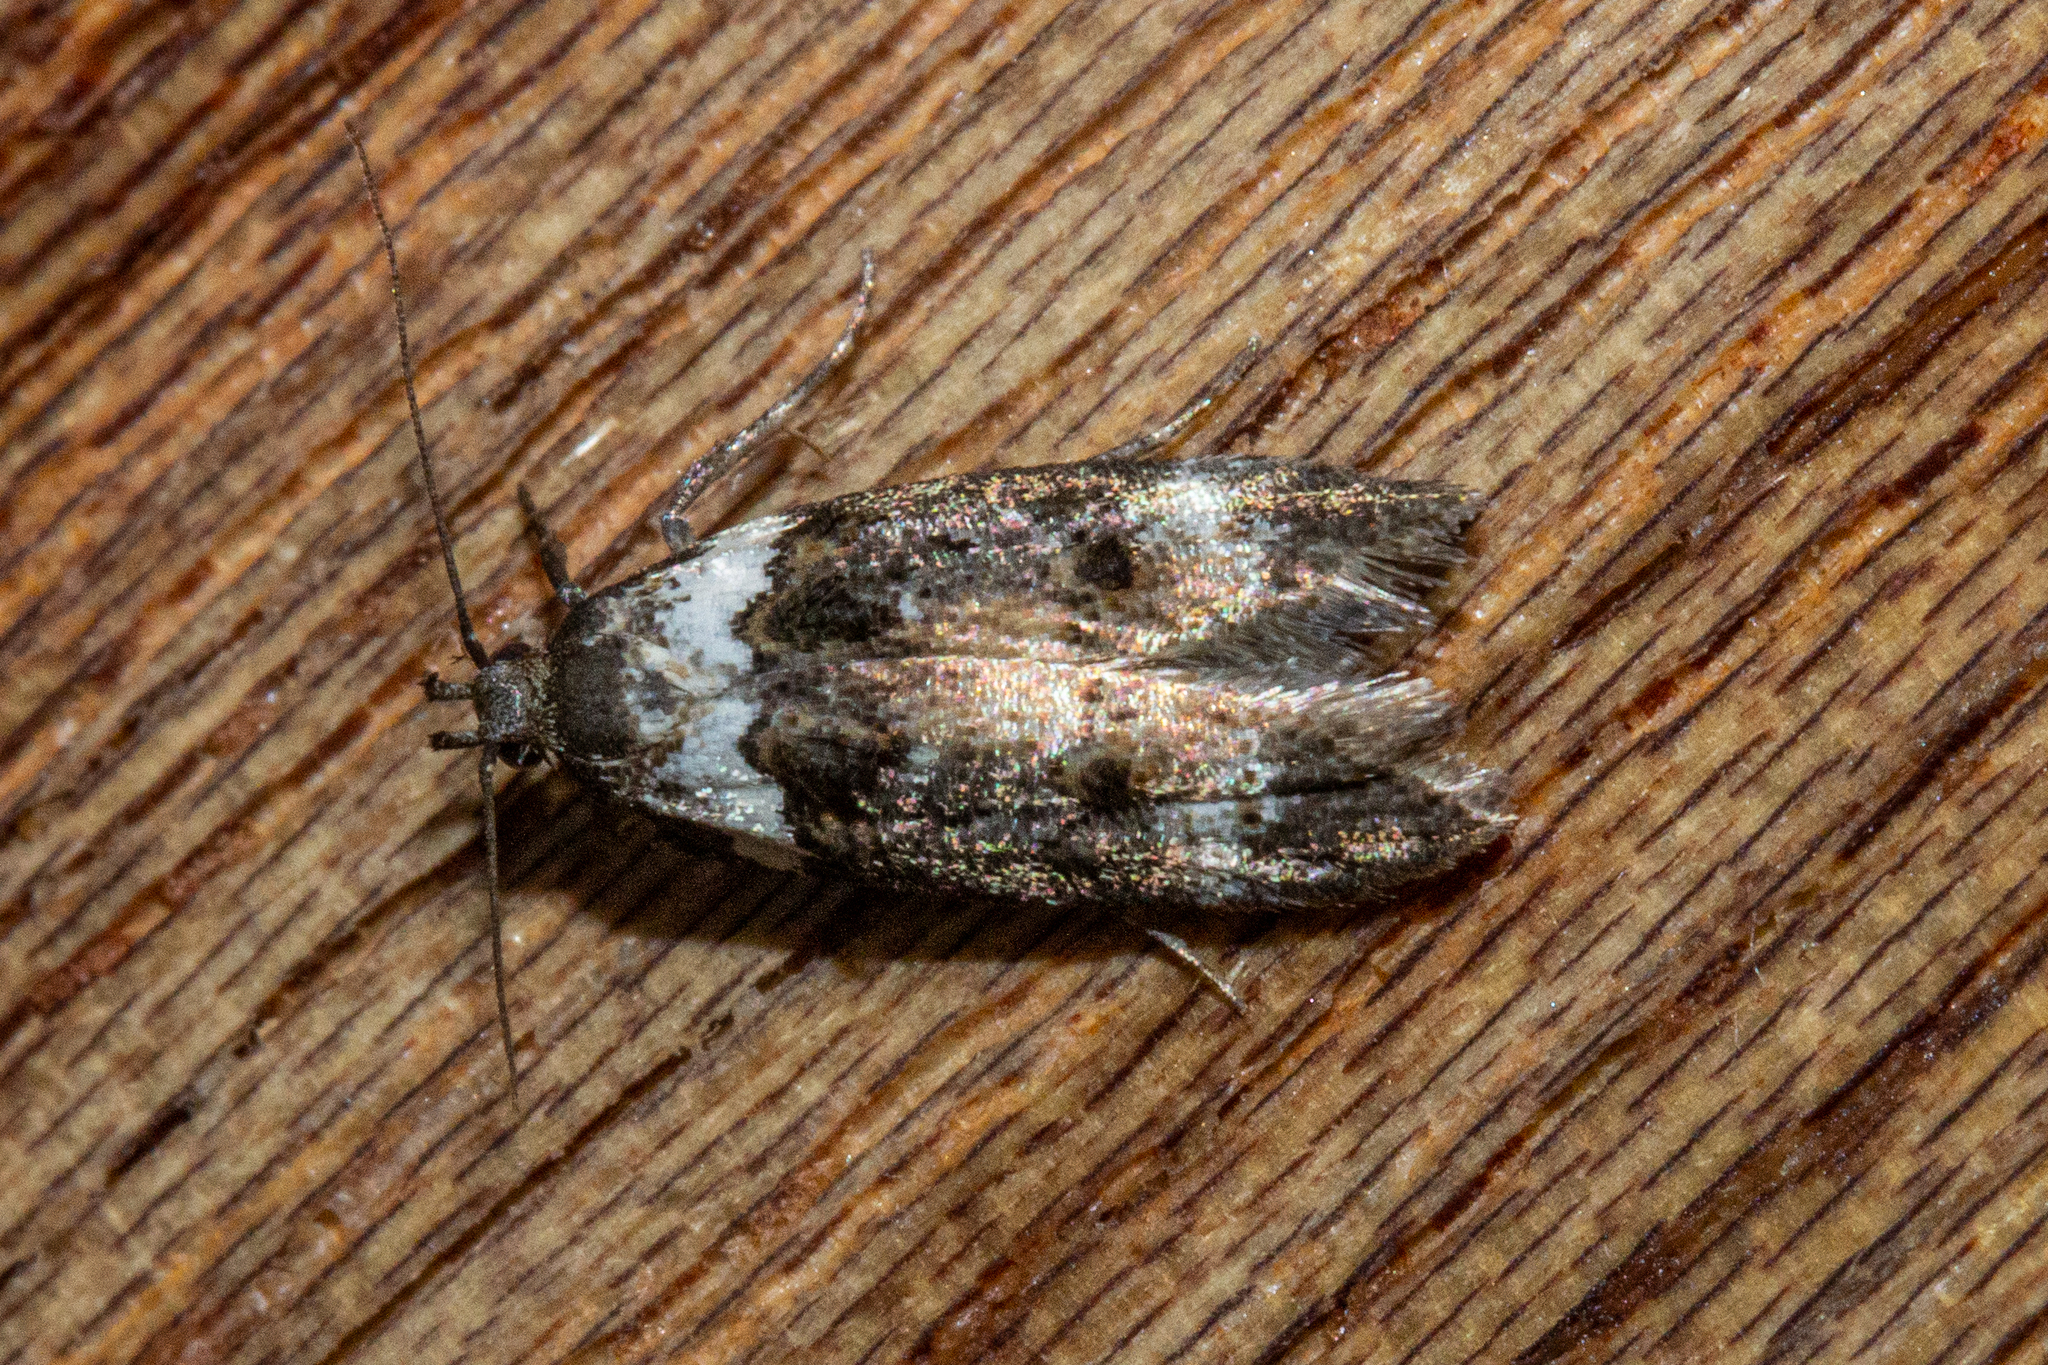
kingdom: Animalia
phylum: Arthropoda
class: Insecta
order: Lepidoptera
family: Oecophoridae
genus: Trachypepla
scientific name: Trachypepla conspicuella
